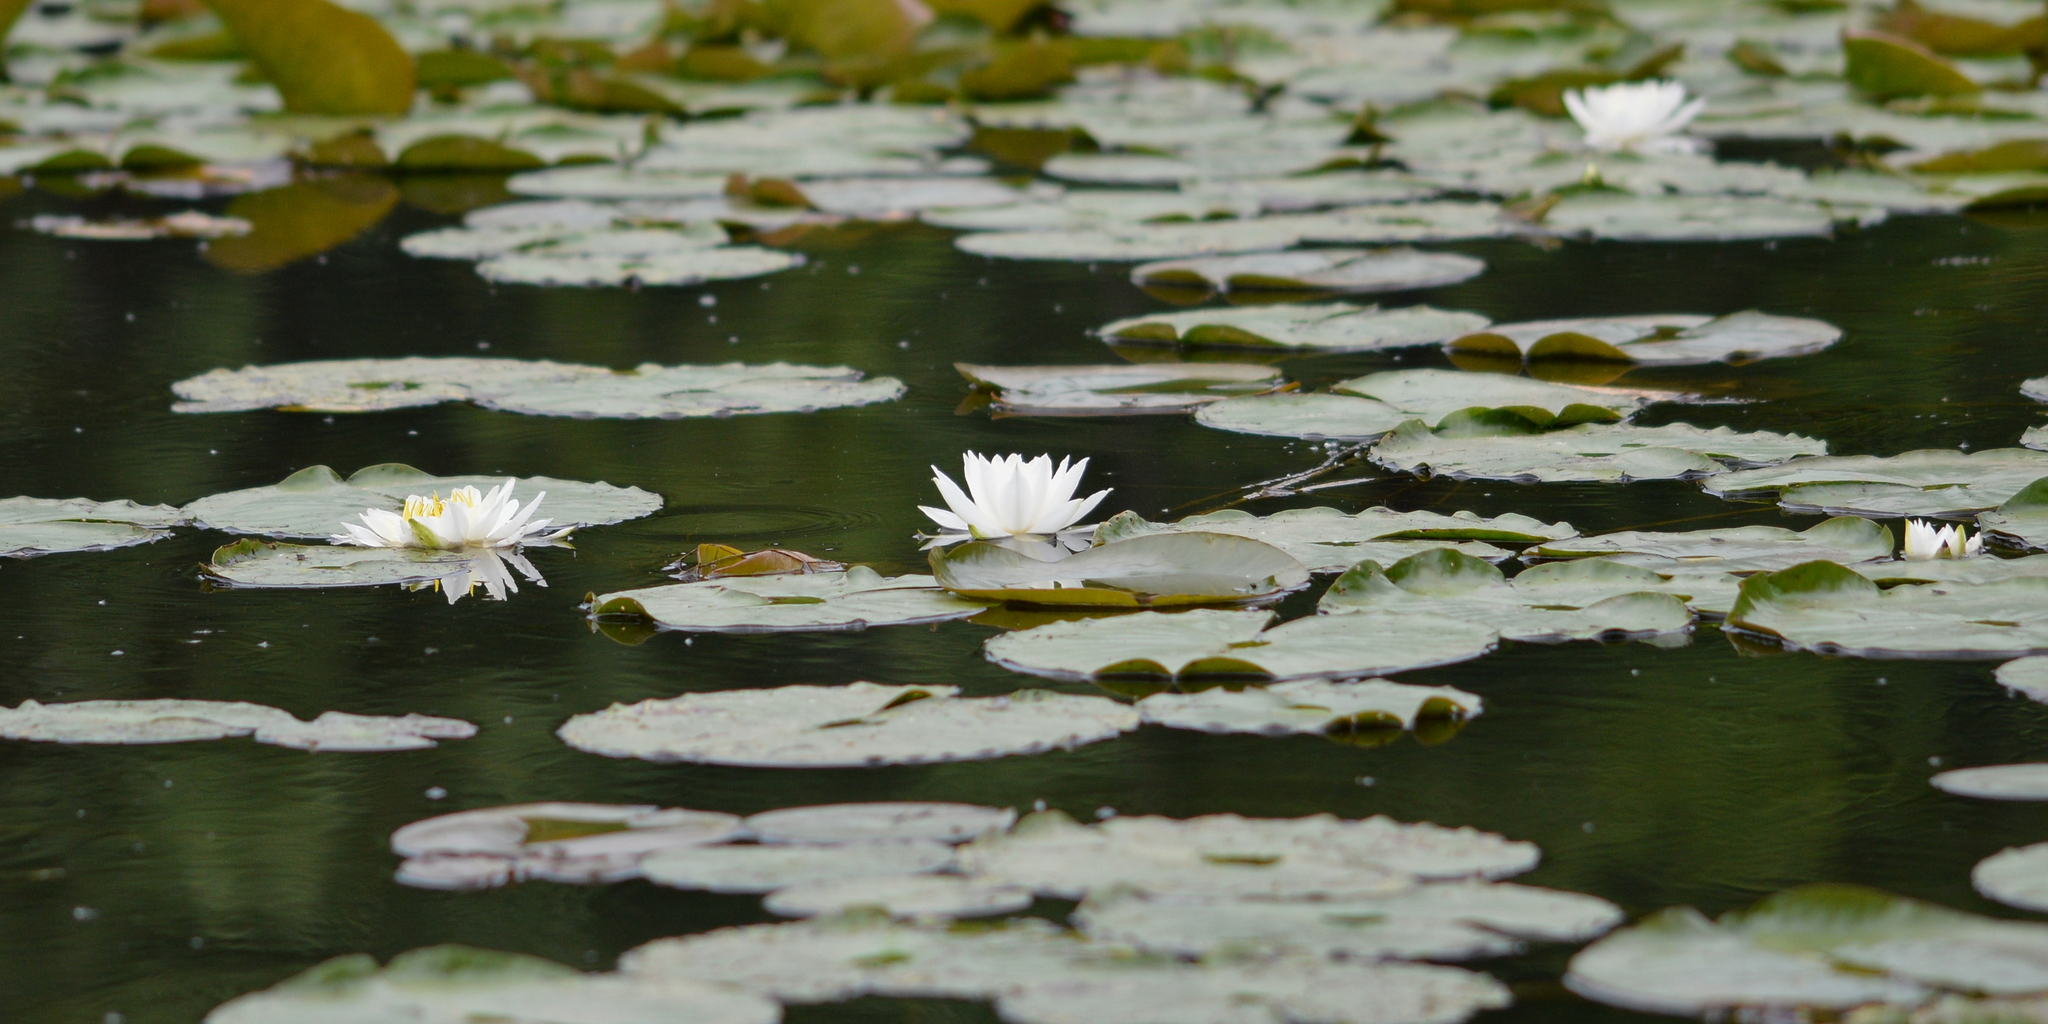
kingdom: Plantae
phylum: Tracheophyta
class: Magnoliopsida
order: Nymphaeales
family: Nymphaeaceae
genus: Nymphaea
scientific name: Nymphaea odorata
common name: Fragrant water-lily
